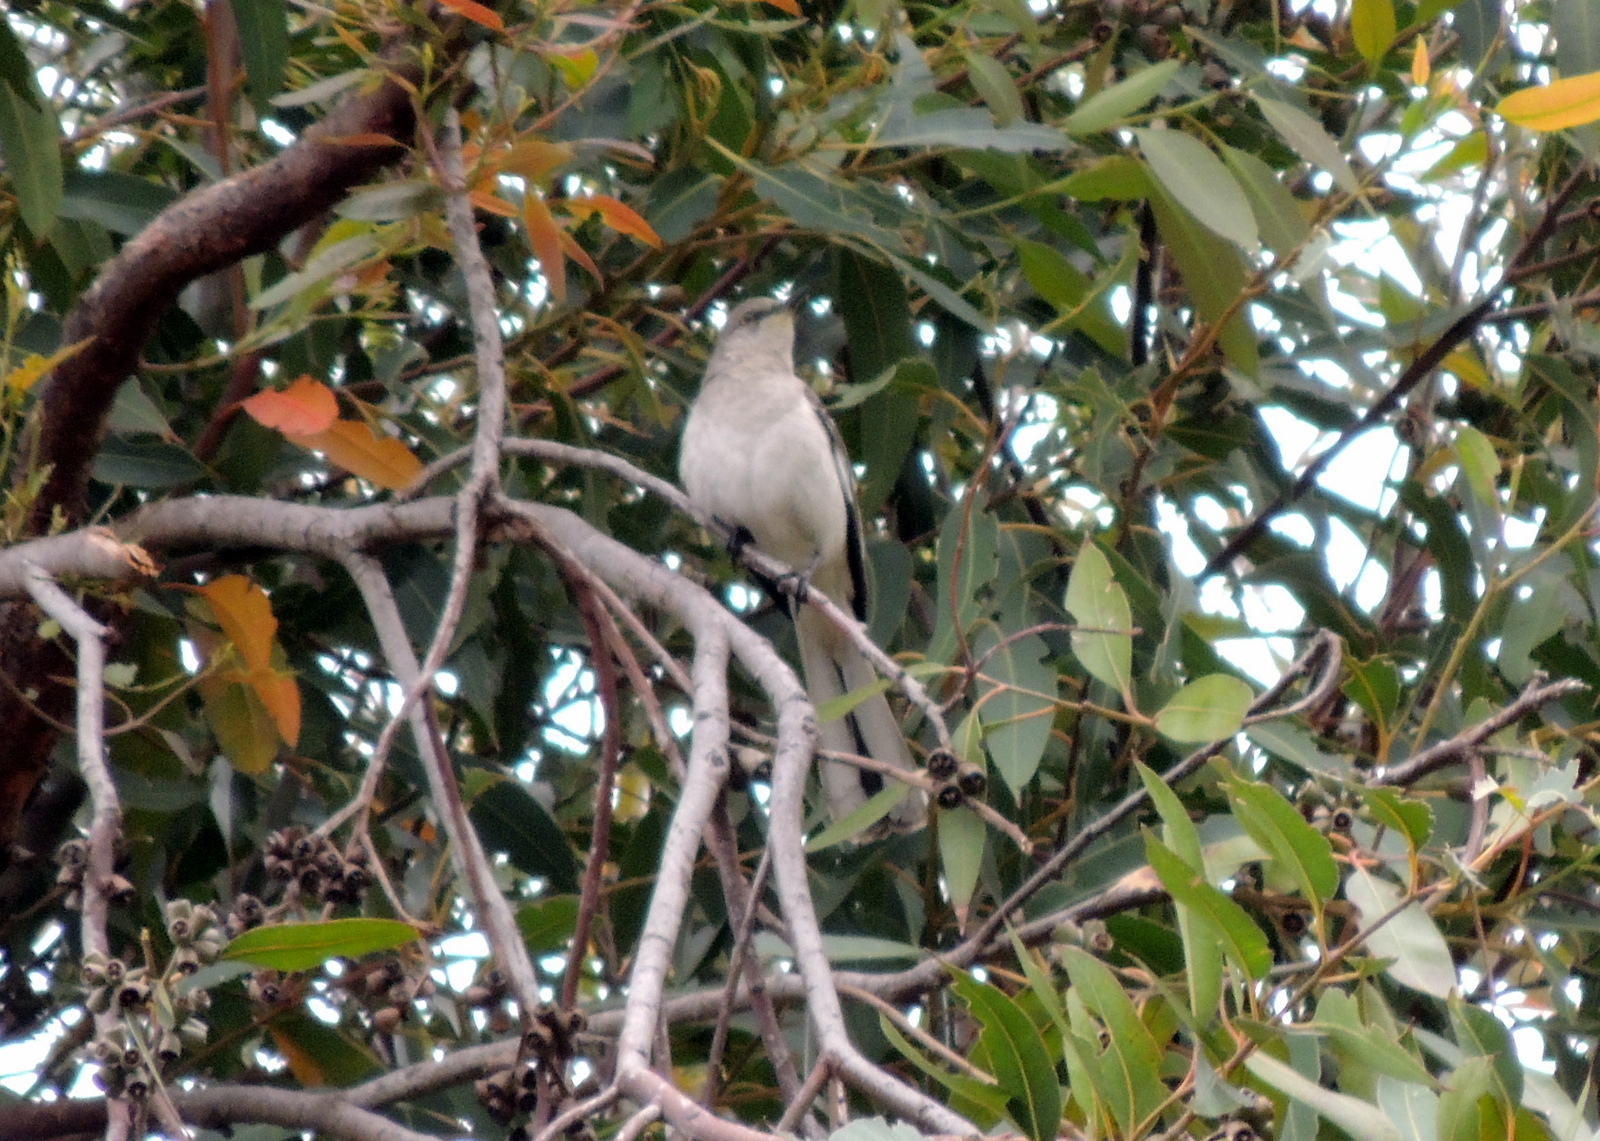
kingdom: Animalia
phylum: Chordata
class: Aves
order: Passeriformes
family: Mimidae
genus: Mimus
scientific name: Mimus polyglottos
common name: Northern mockingbird
